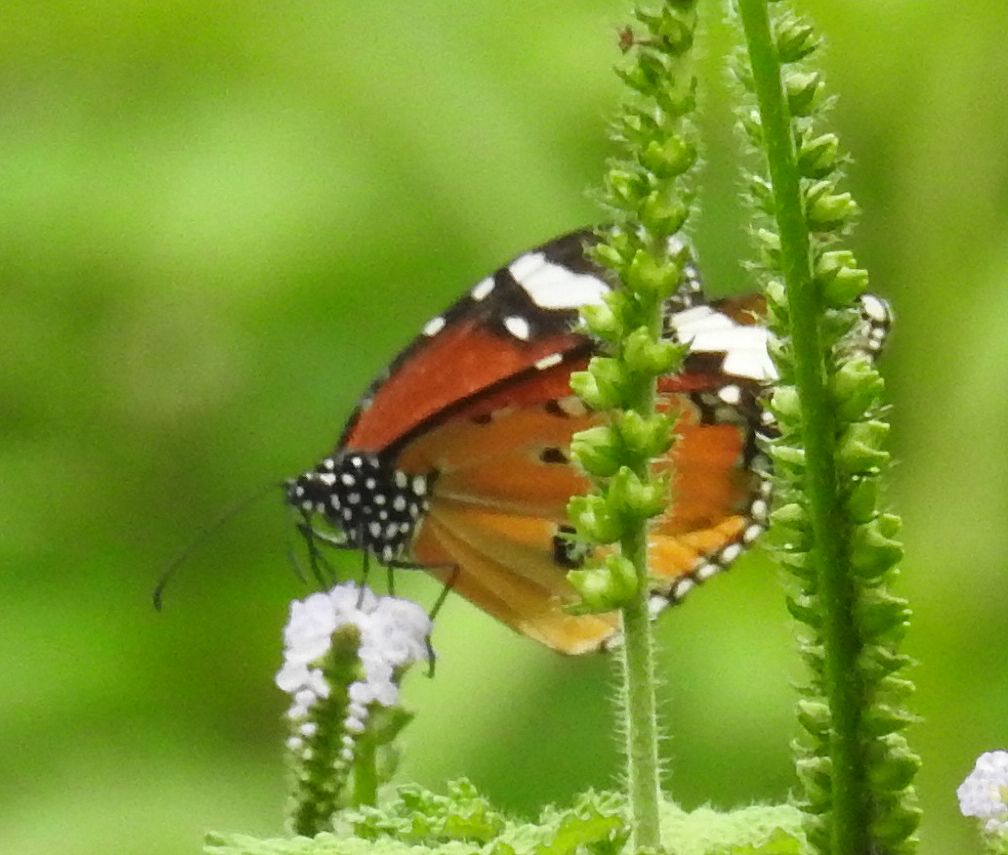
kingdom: Animalia
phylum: Arthropoda
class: Insecta
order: Lepidoptera
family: Nymphalidae
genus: Danaus
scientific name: Danaus chrysippus
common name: Plain tiger
